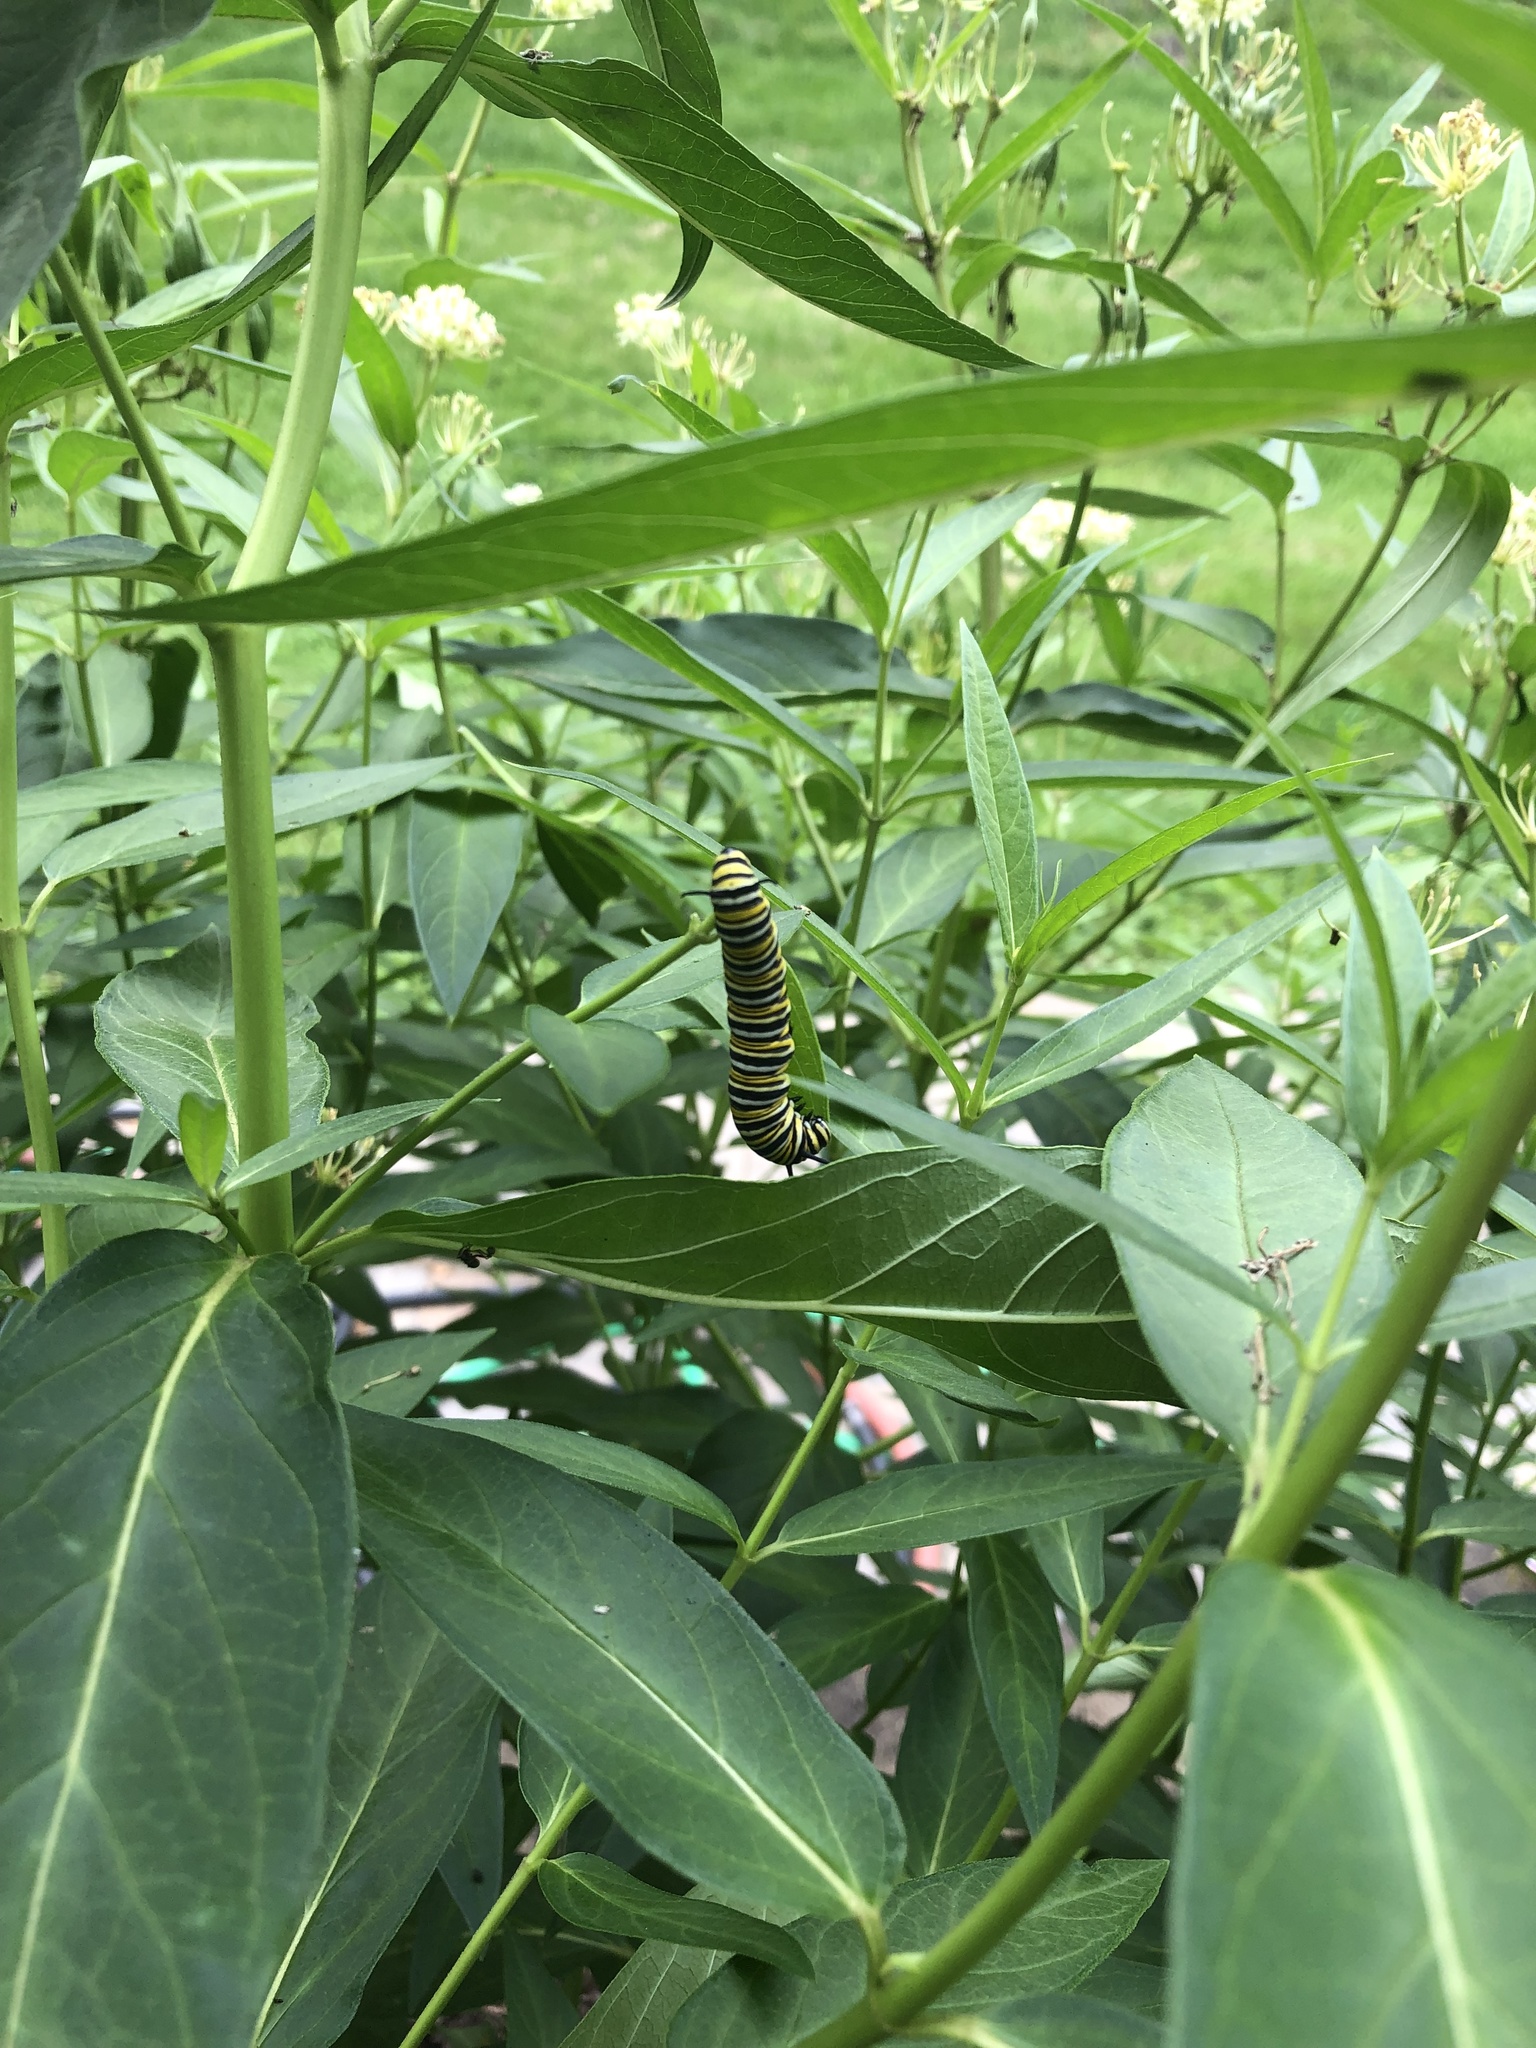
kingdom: Animalia
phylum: Arthropoda
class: Insecta
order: Lepidoptera
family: Nymphalidae
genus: Danaus
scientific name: Danaus plexippus
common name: Monarch
